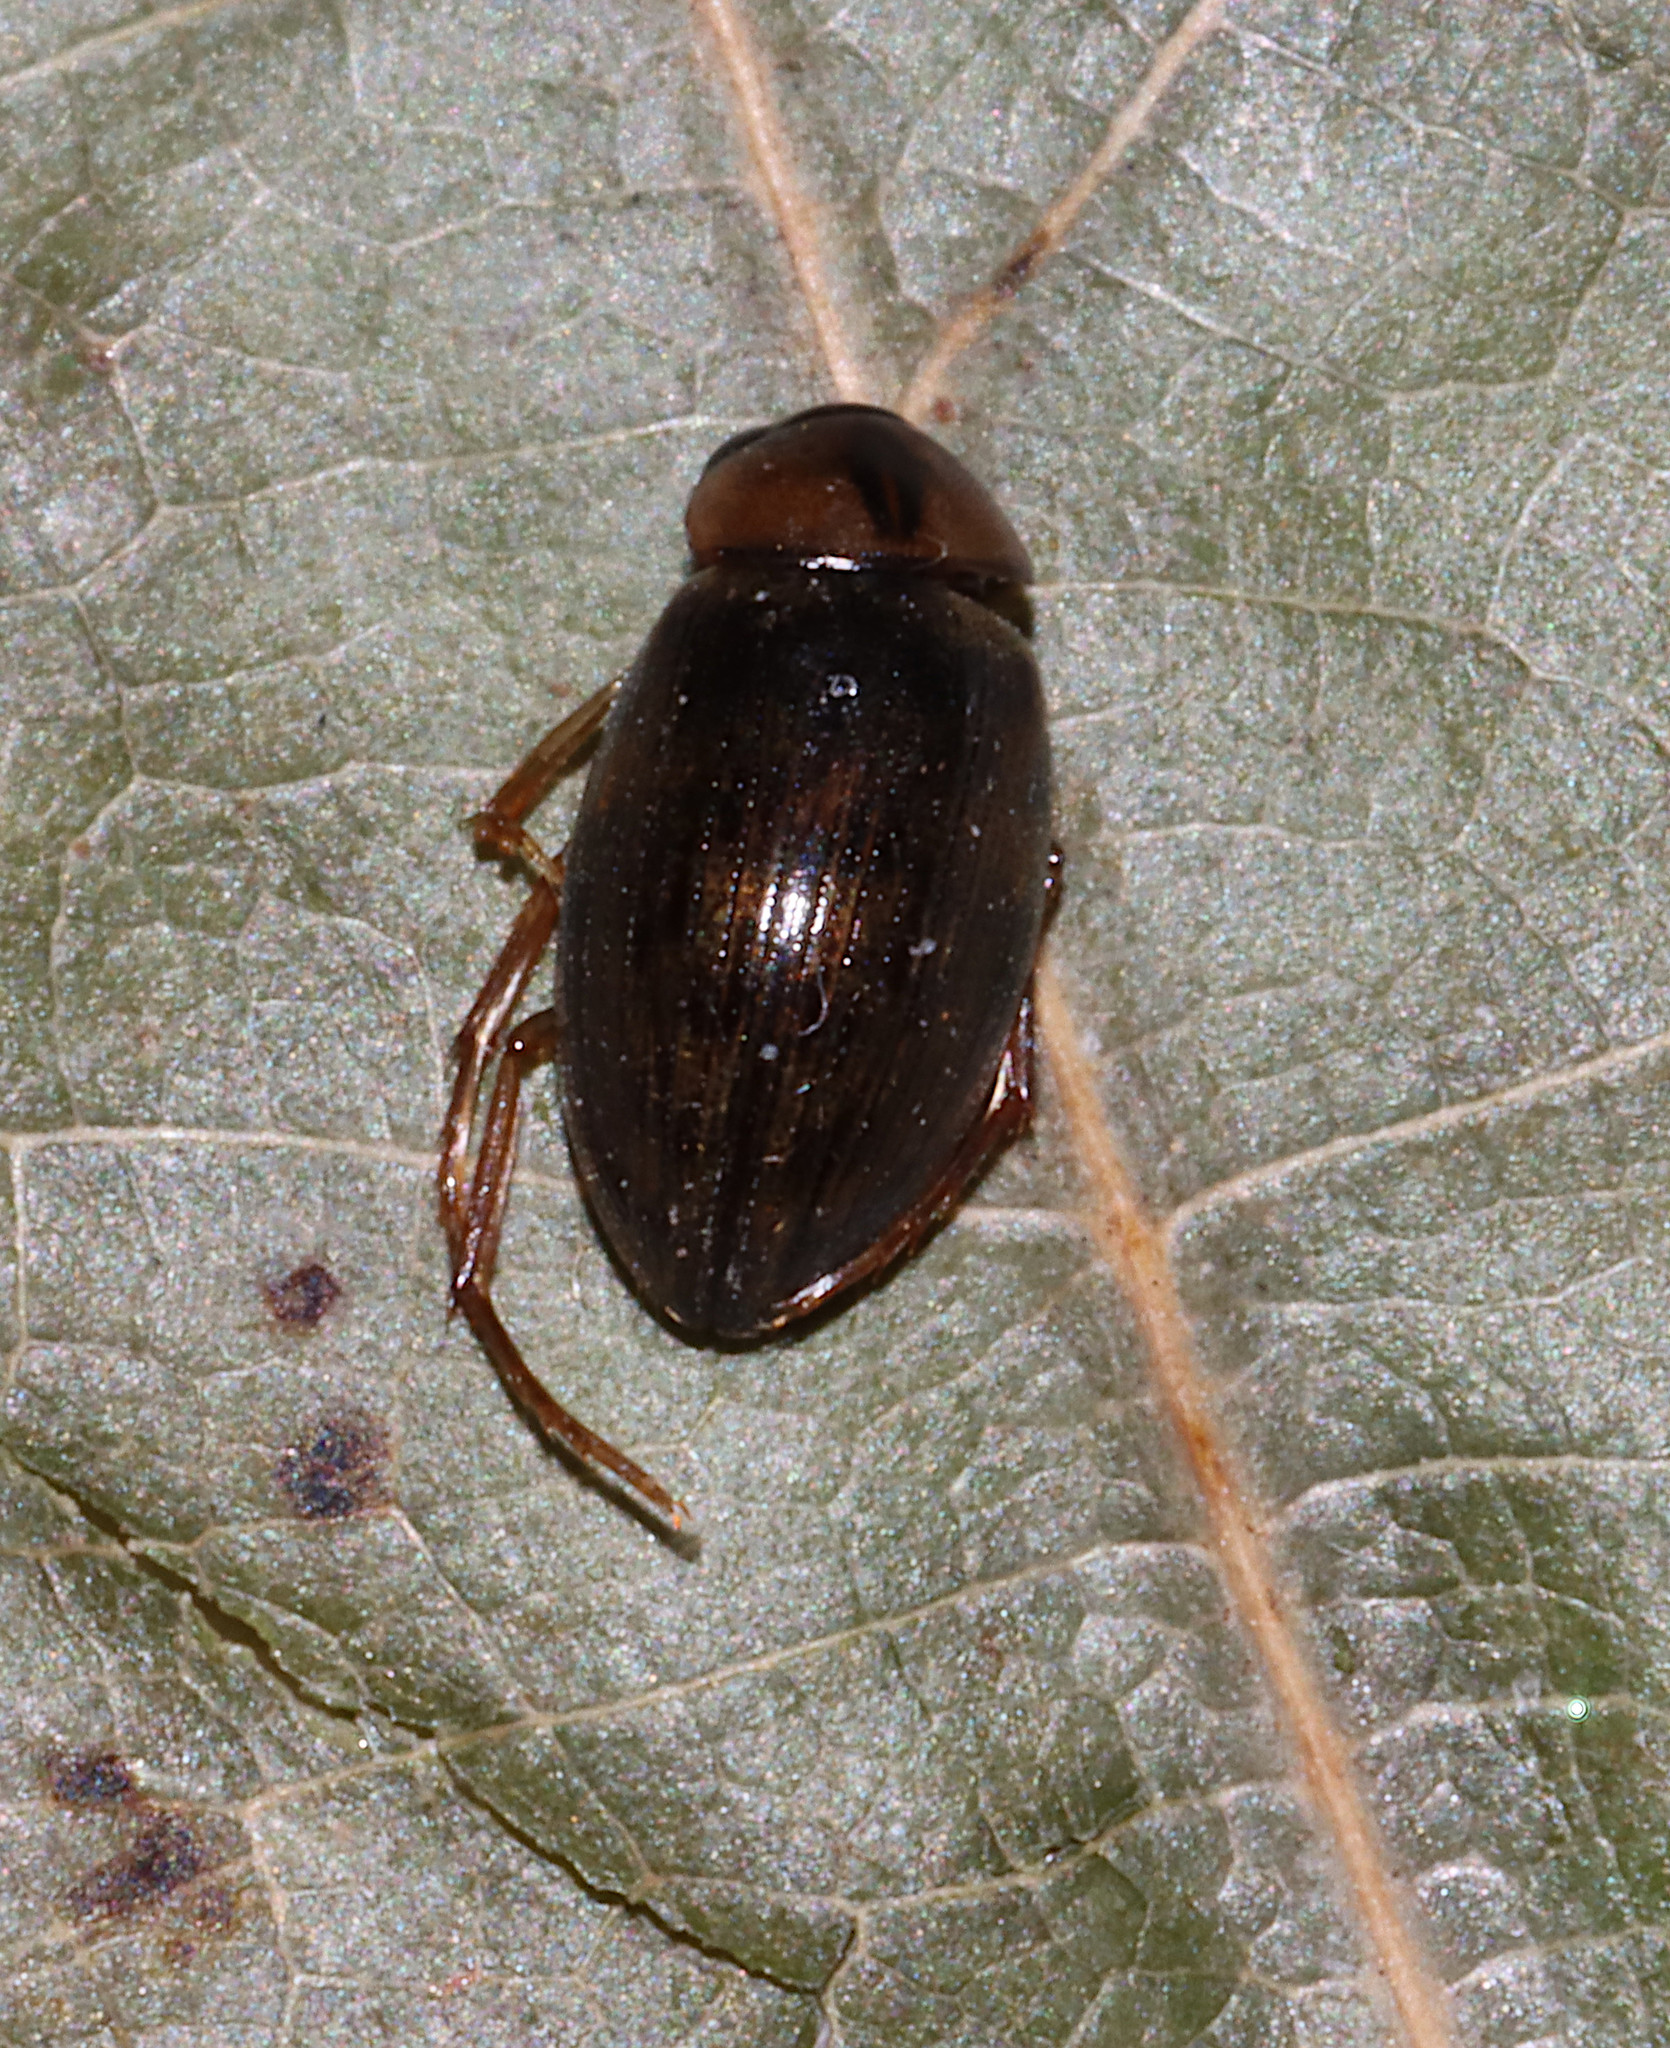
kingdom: Animalia
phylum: Arthropoda
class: Insecta
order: Coleoptera
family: Hydrophilidae
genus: Berosus
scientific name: Berosus
